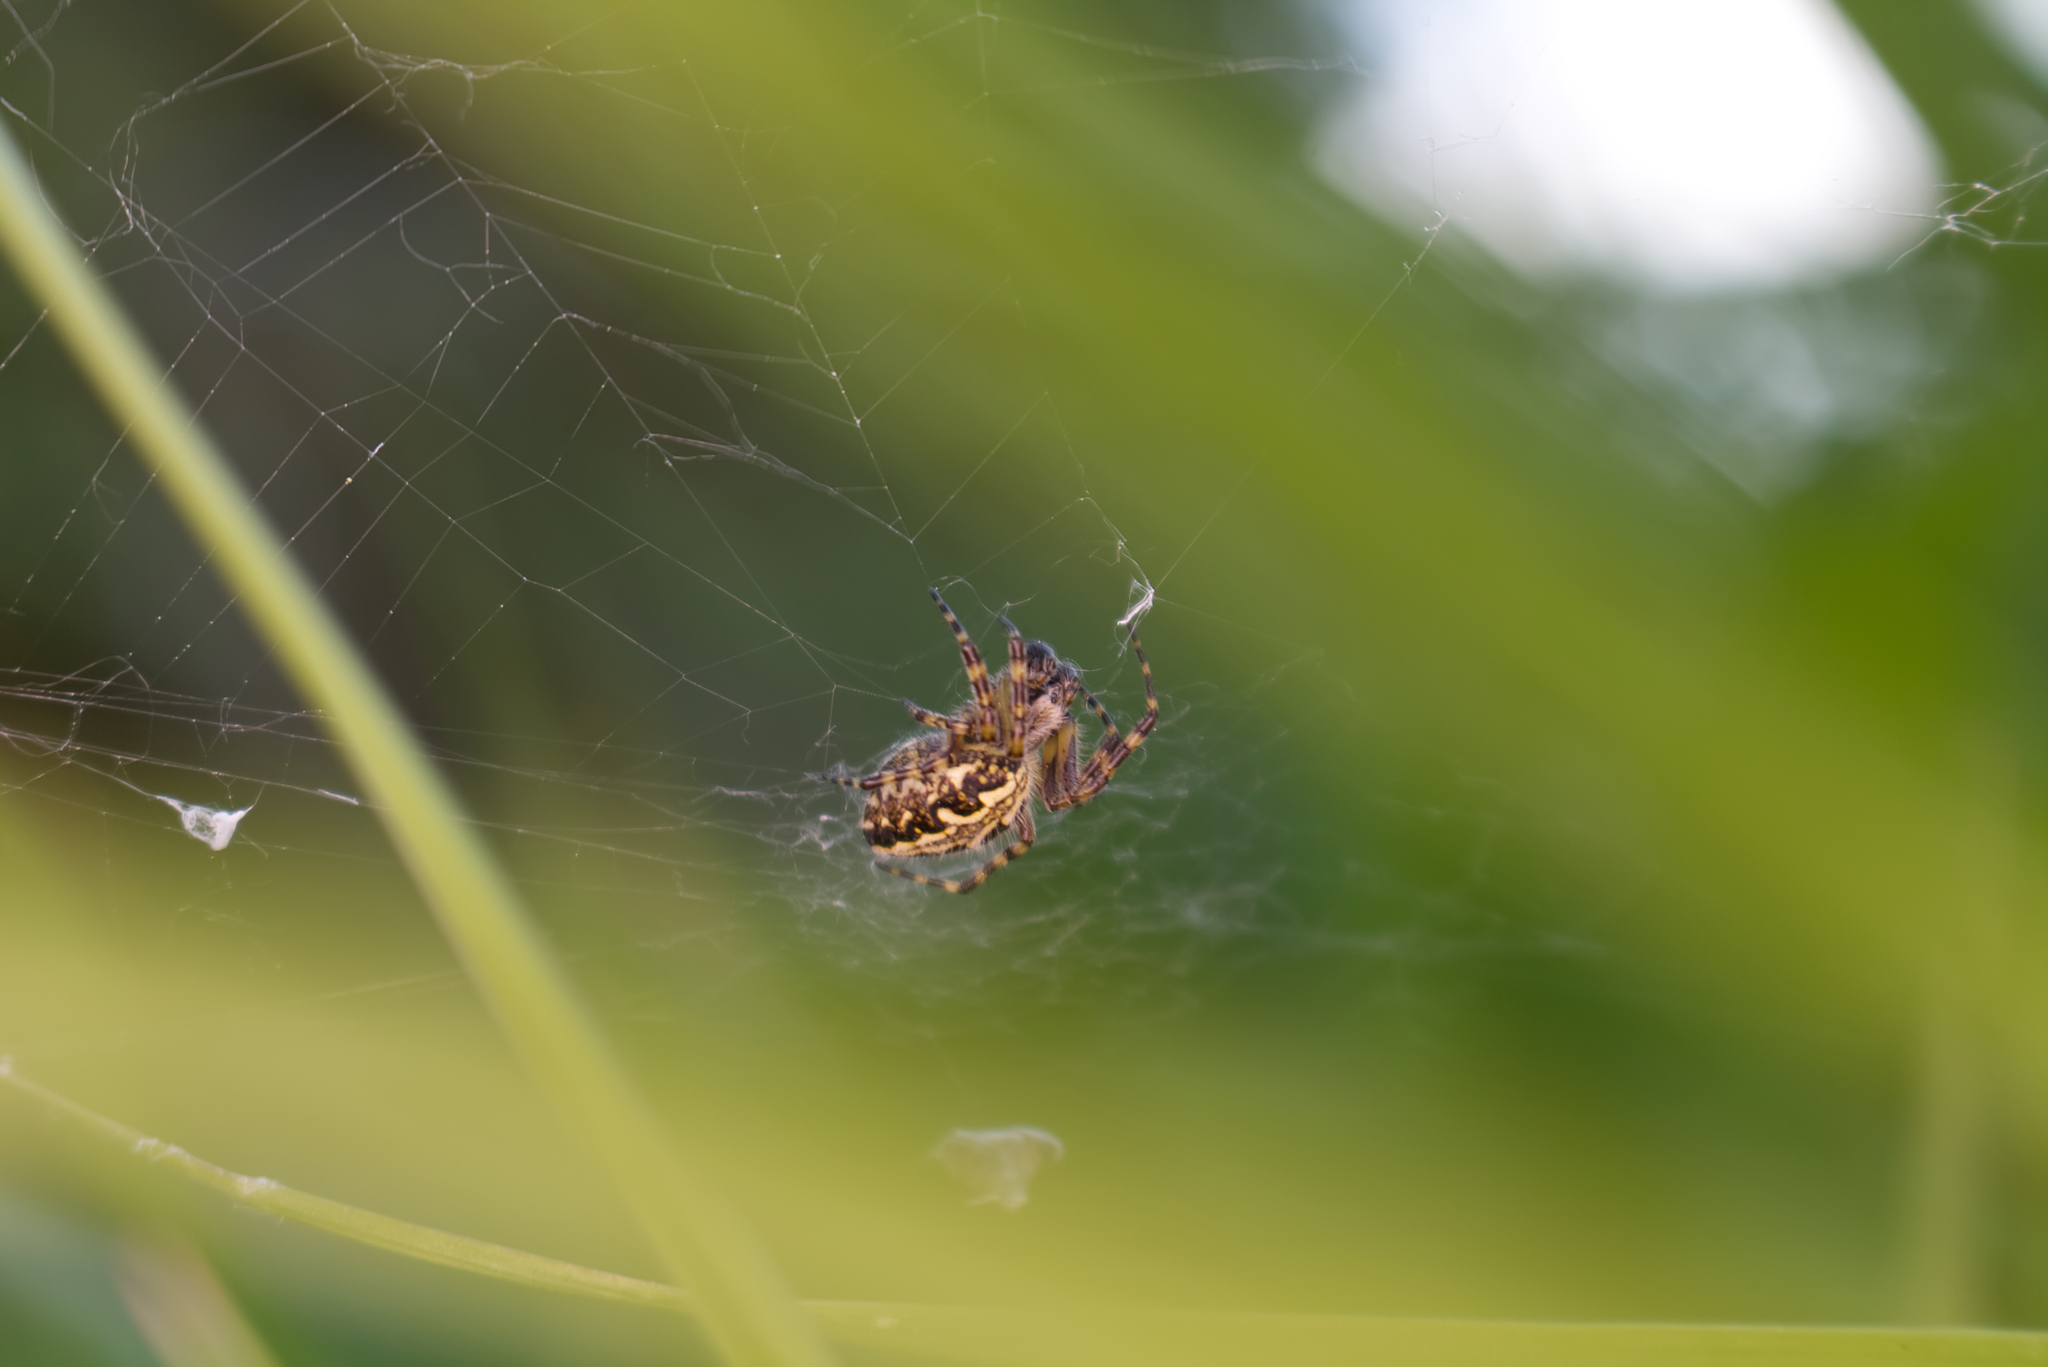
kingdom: Animalia
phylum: Arthropoda
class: Arachnida
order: Araneae
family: Araneidae
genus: Aculepeira
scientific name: Aculepeira ceropegia
